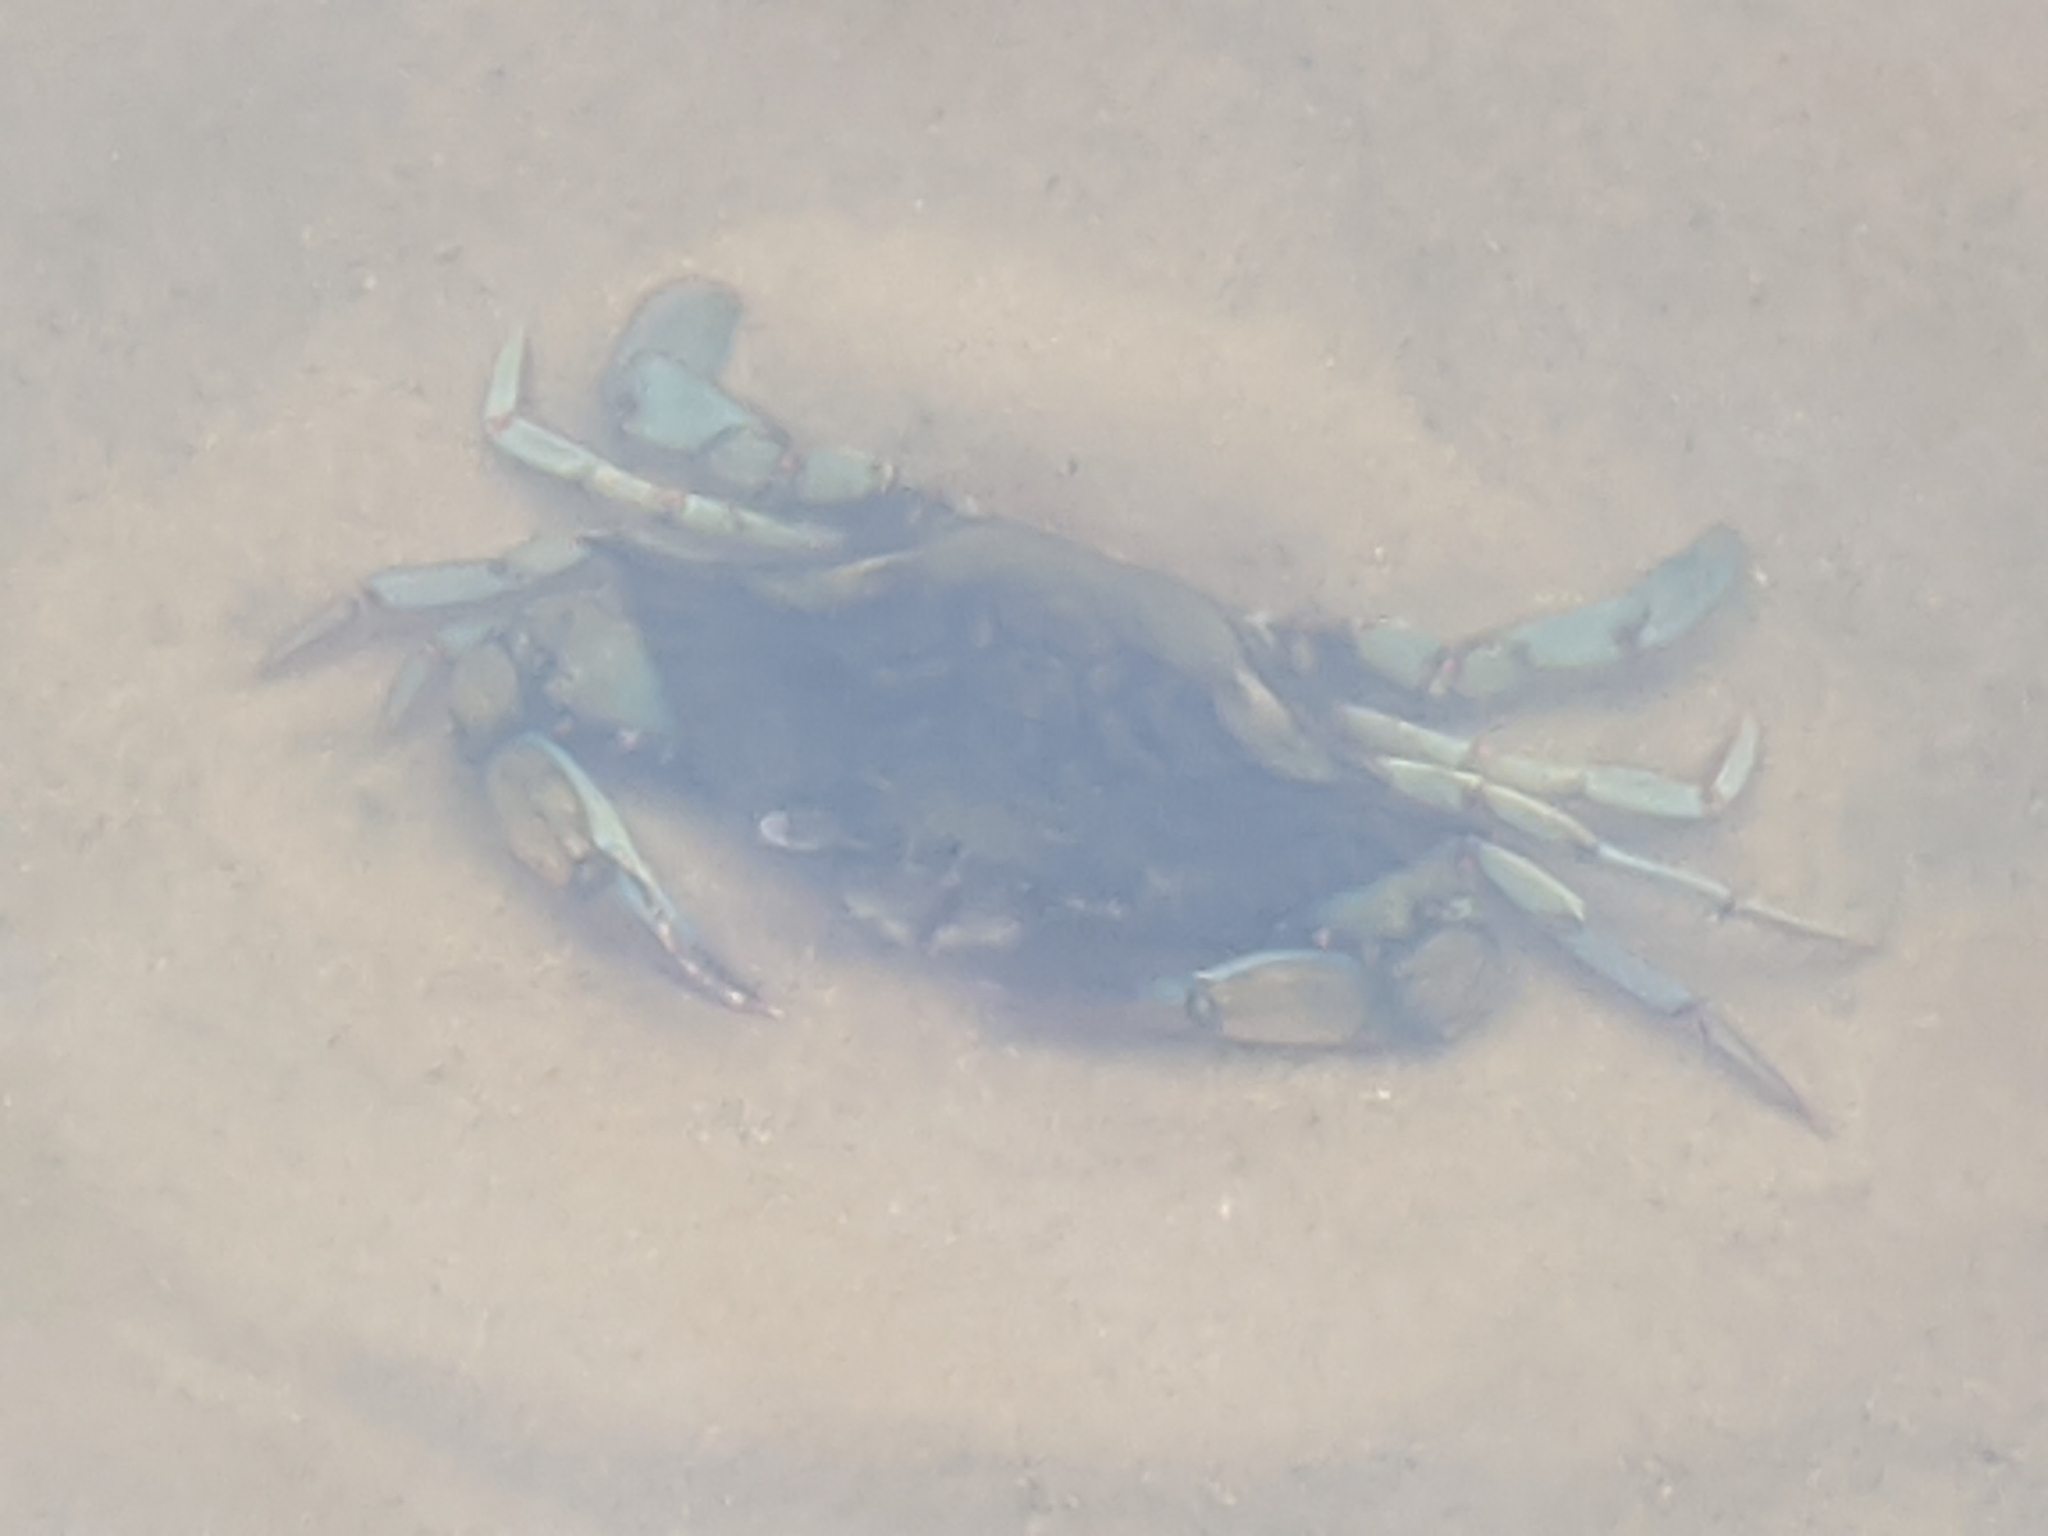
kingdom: Animalia
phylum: Arthropoda
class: Malacostraca
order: Decapoda
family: Portunidae
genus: Callinectes
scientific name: Callinectes sapidus
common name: Blue crab
